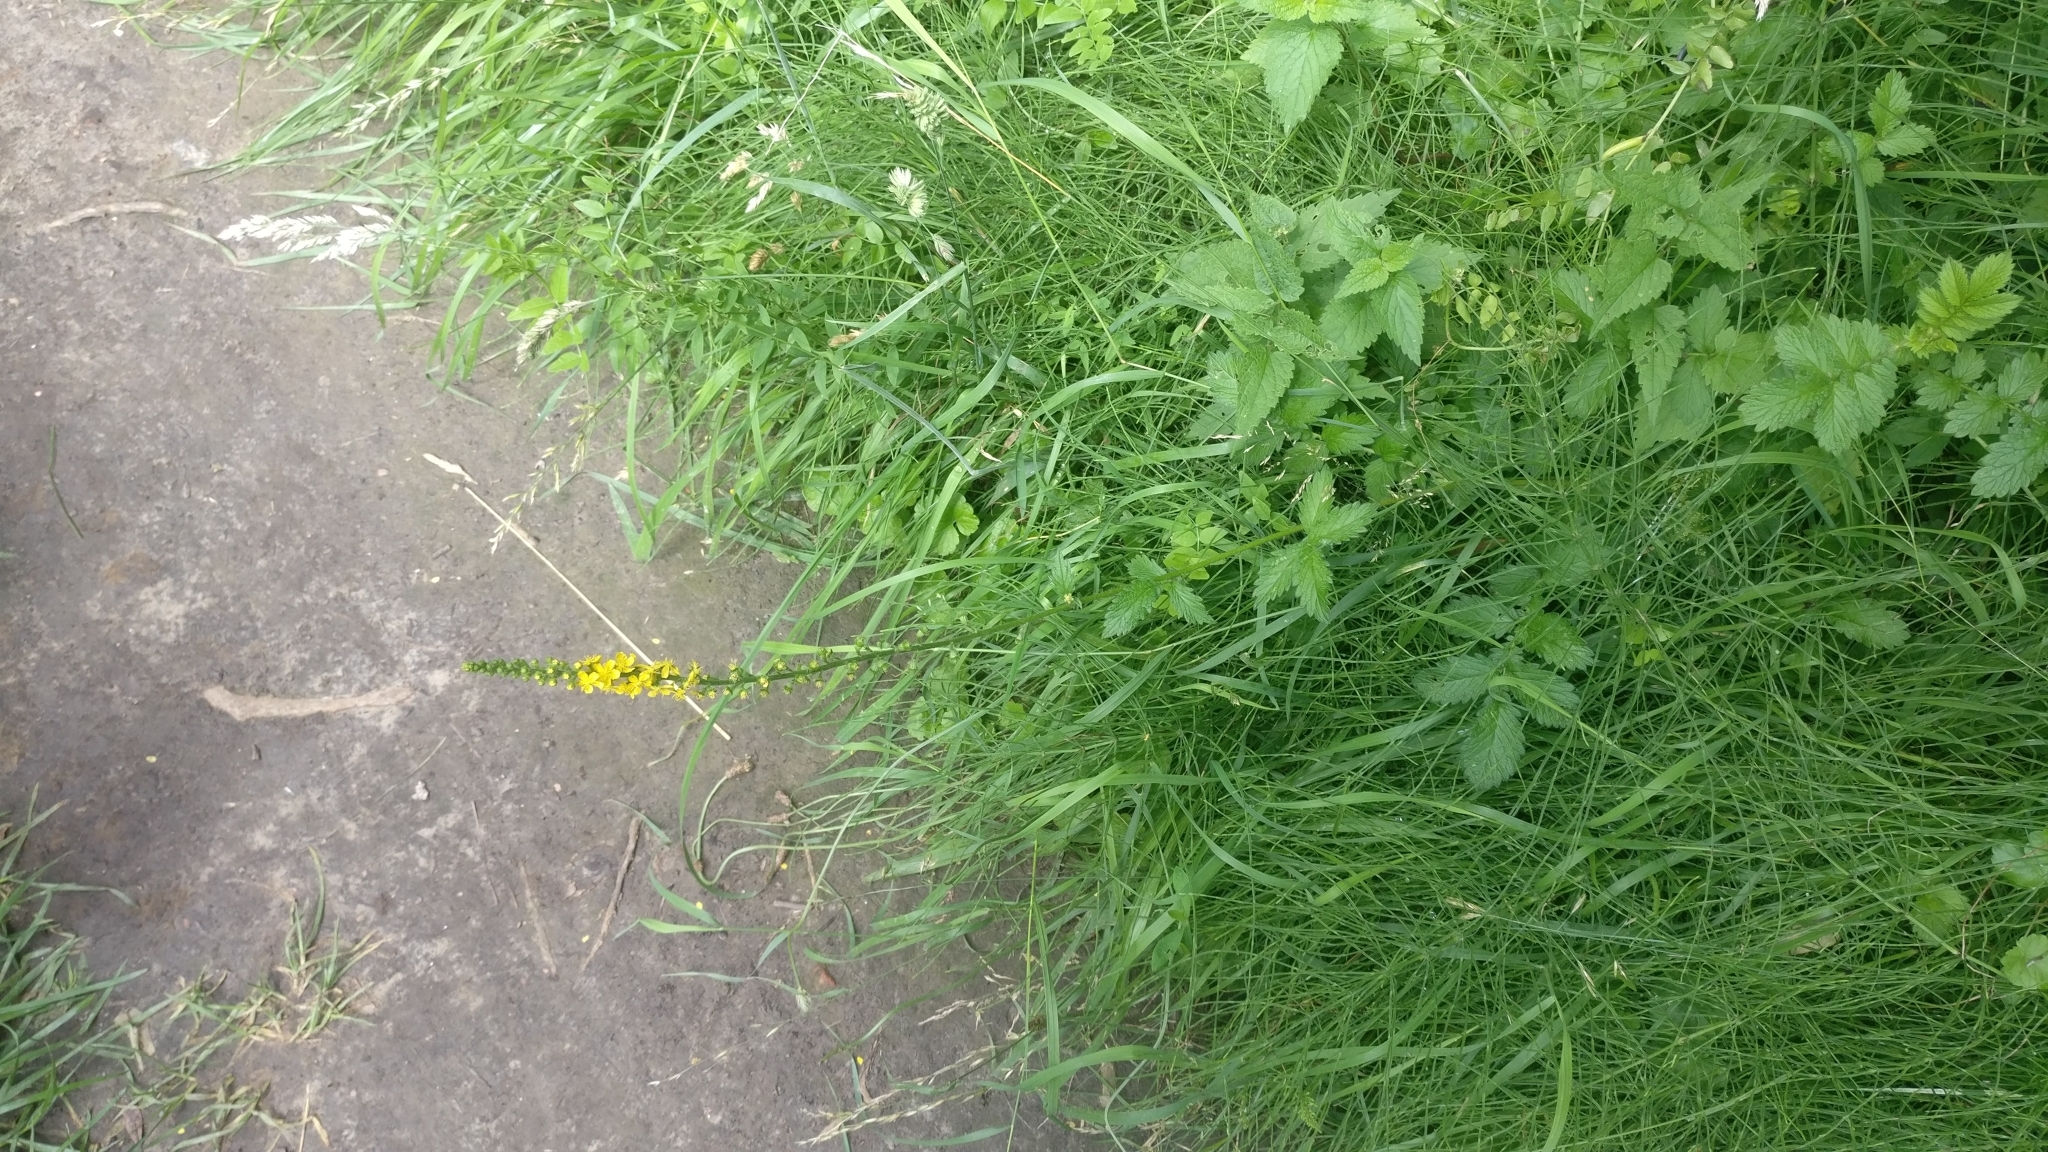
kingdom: Plantae
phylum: Tracheophyta
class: Magnoliopsida
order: Rosales
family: Rosaceae
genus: Agrimonia
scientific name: Agrimonia eupatoria
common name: Agrimony
